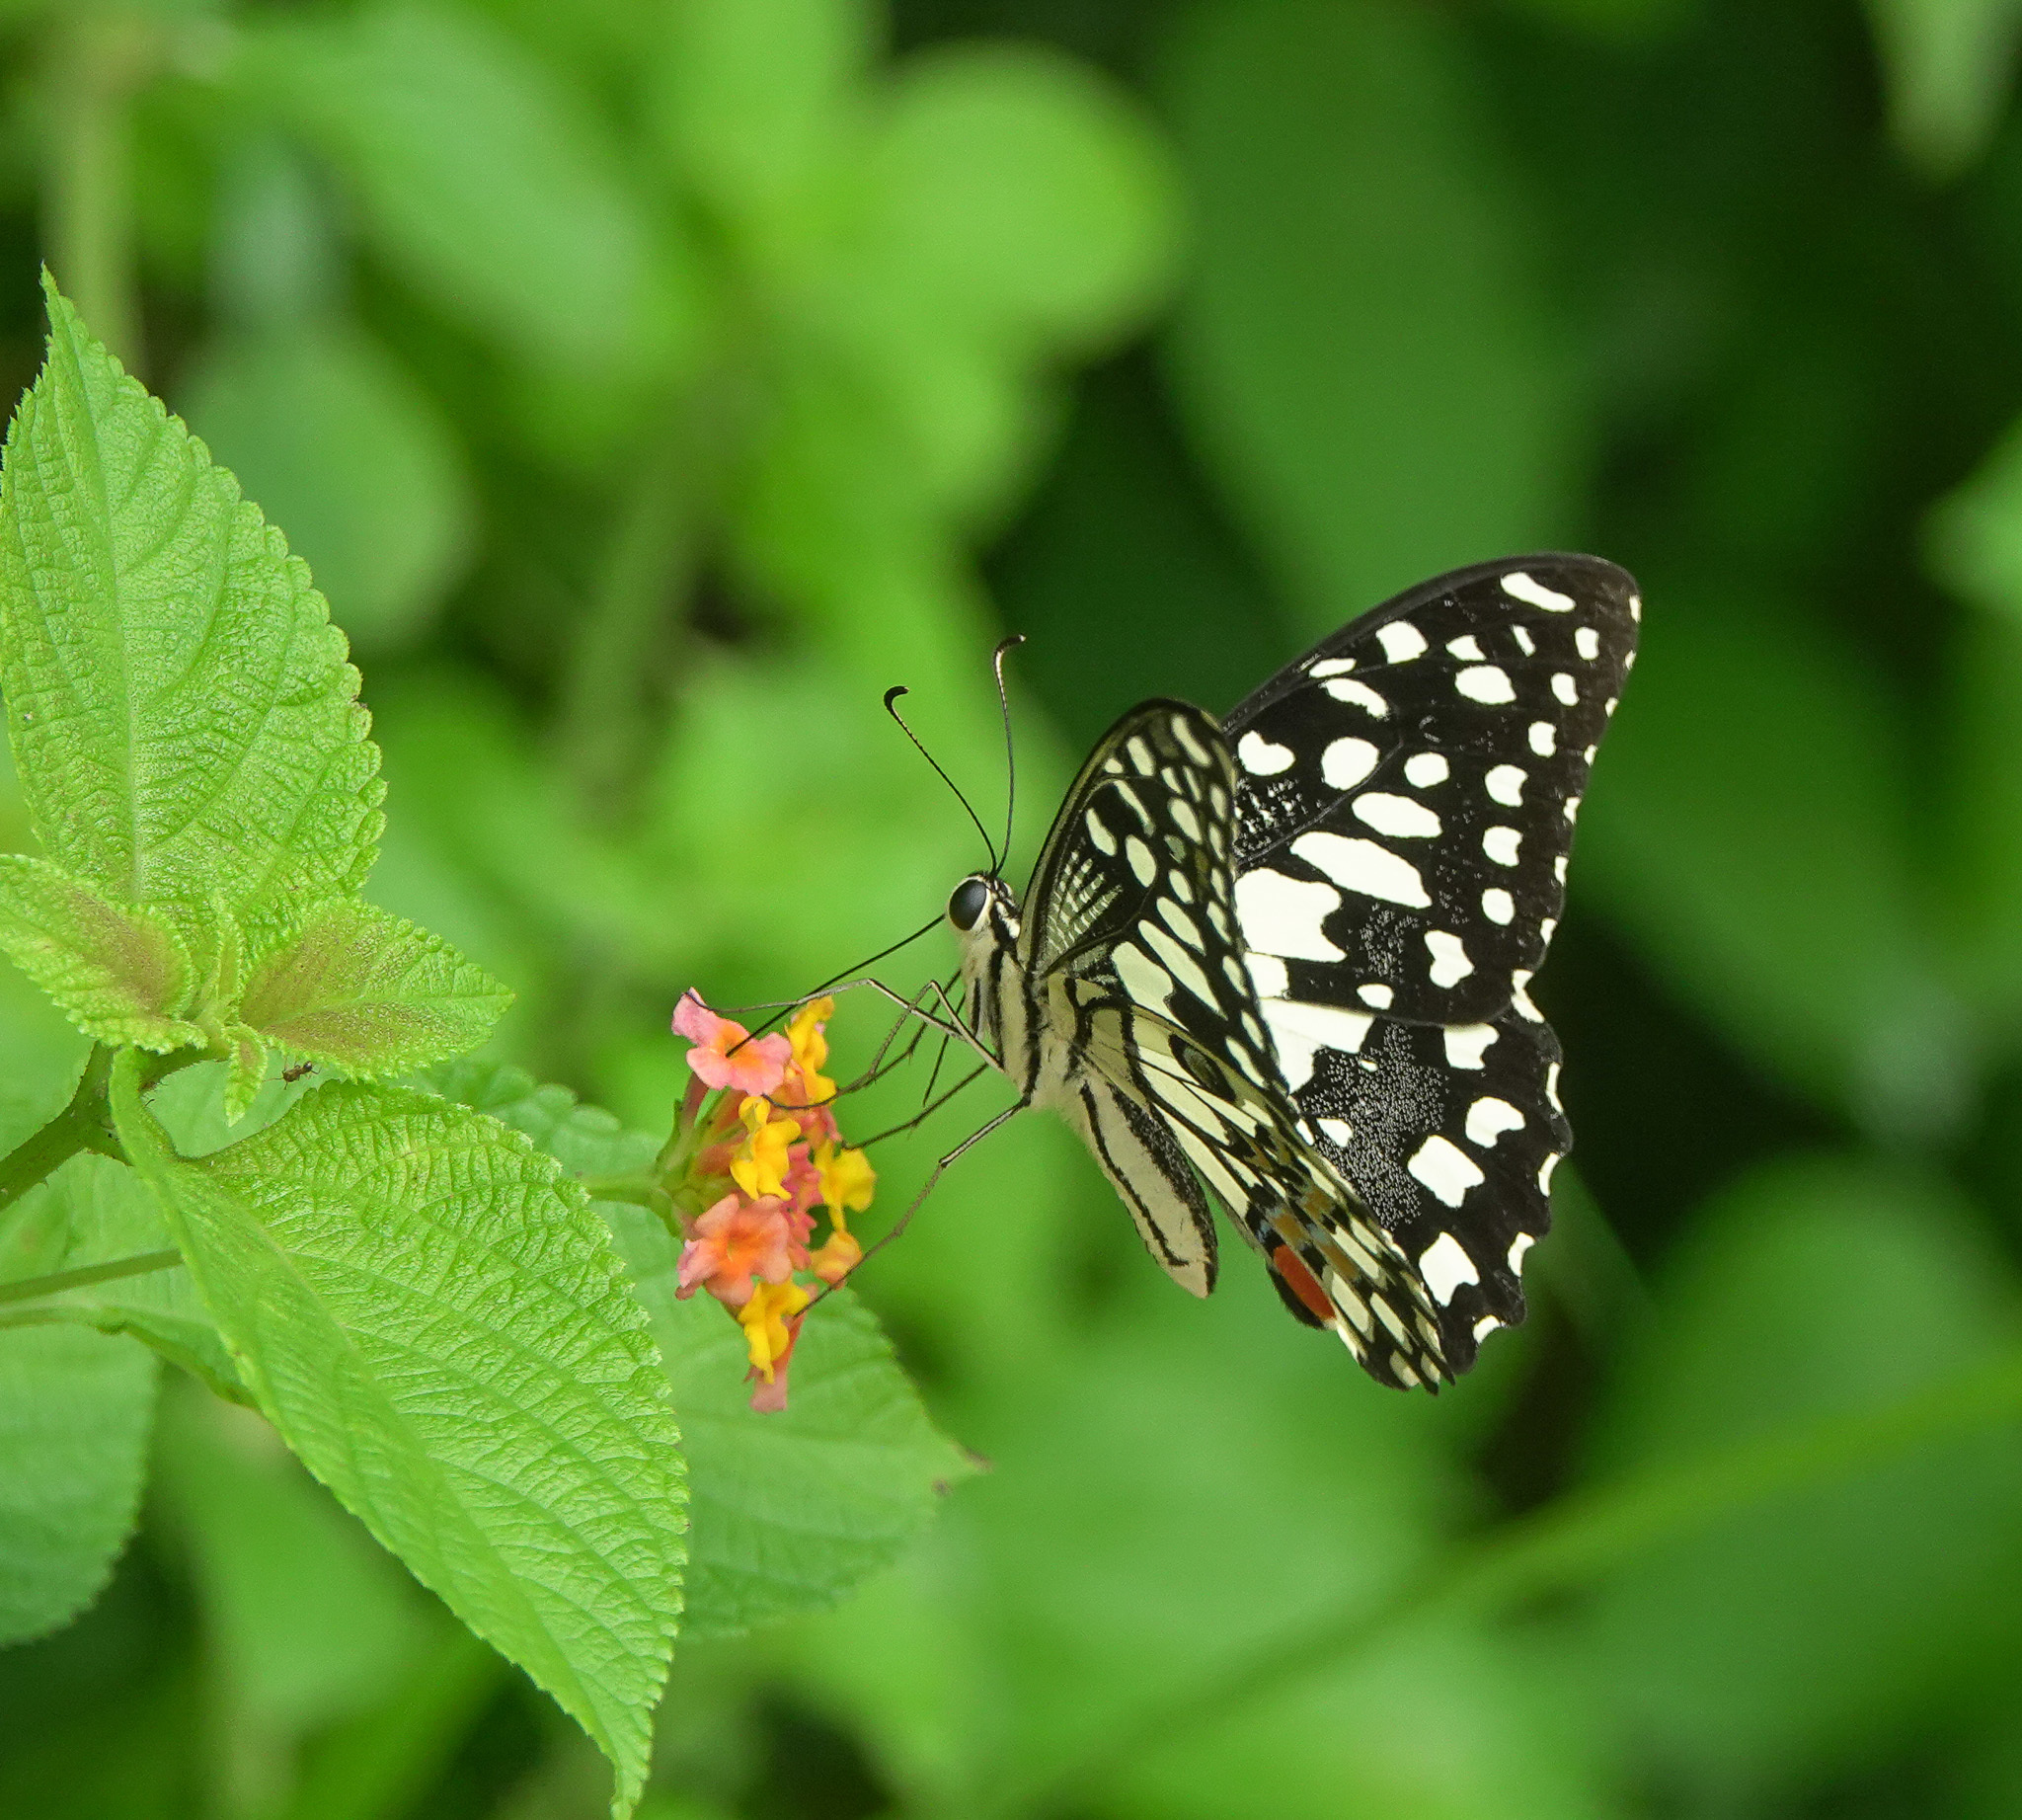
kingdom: Animalia
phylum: Arthropoda
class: Insecta
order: Lepidoptera
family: Papilionidae
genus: Papilio
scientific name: Papilio demoleus
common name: Lime butterfly
